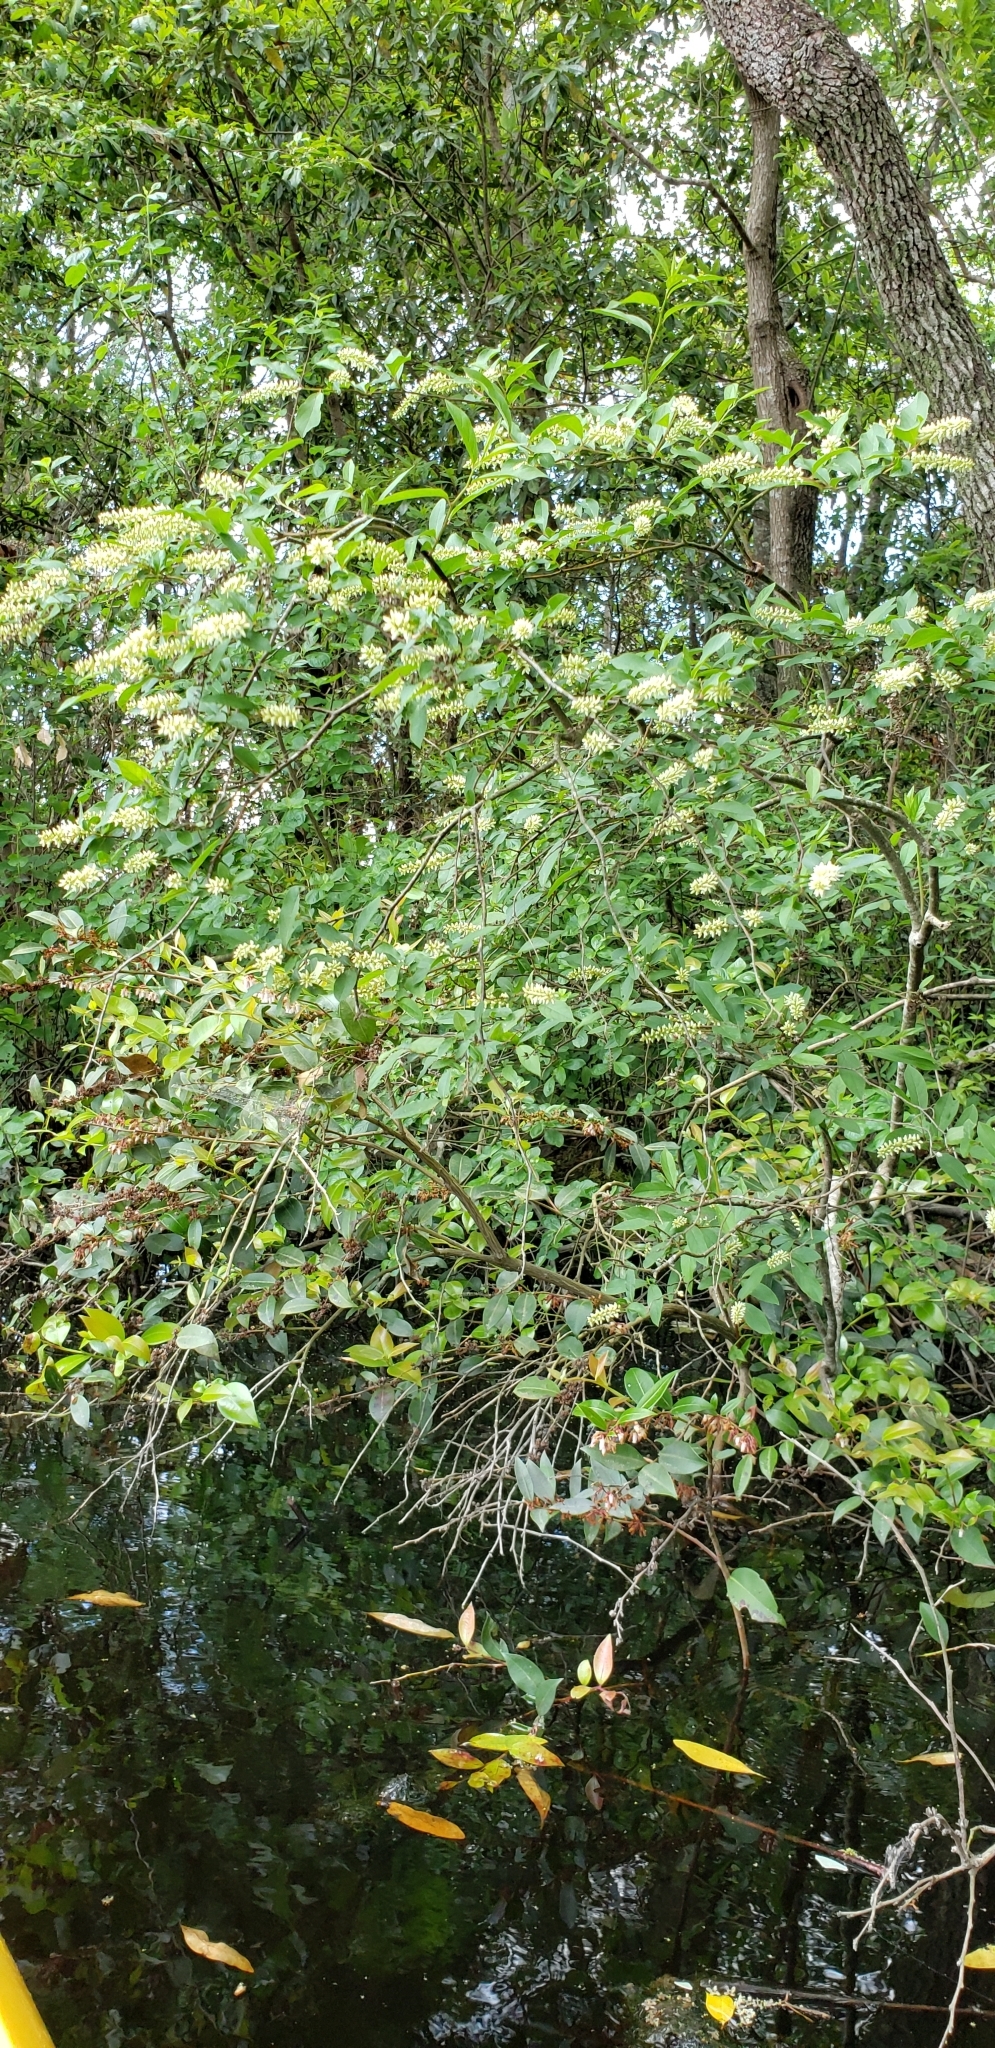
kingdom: Plantae
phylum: Tracheophyta
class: Magnoliopsida
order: Saxifragales
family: Iteaceae
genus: Itea
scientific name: Itea virginica
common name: Sweetspire
